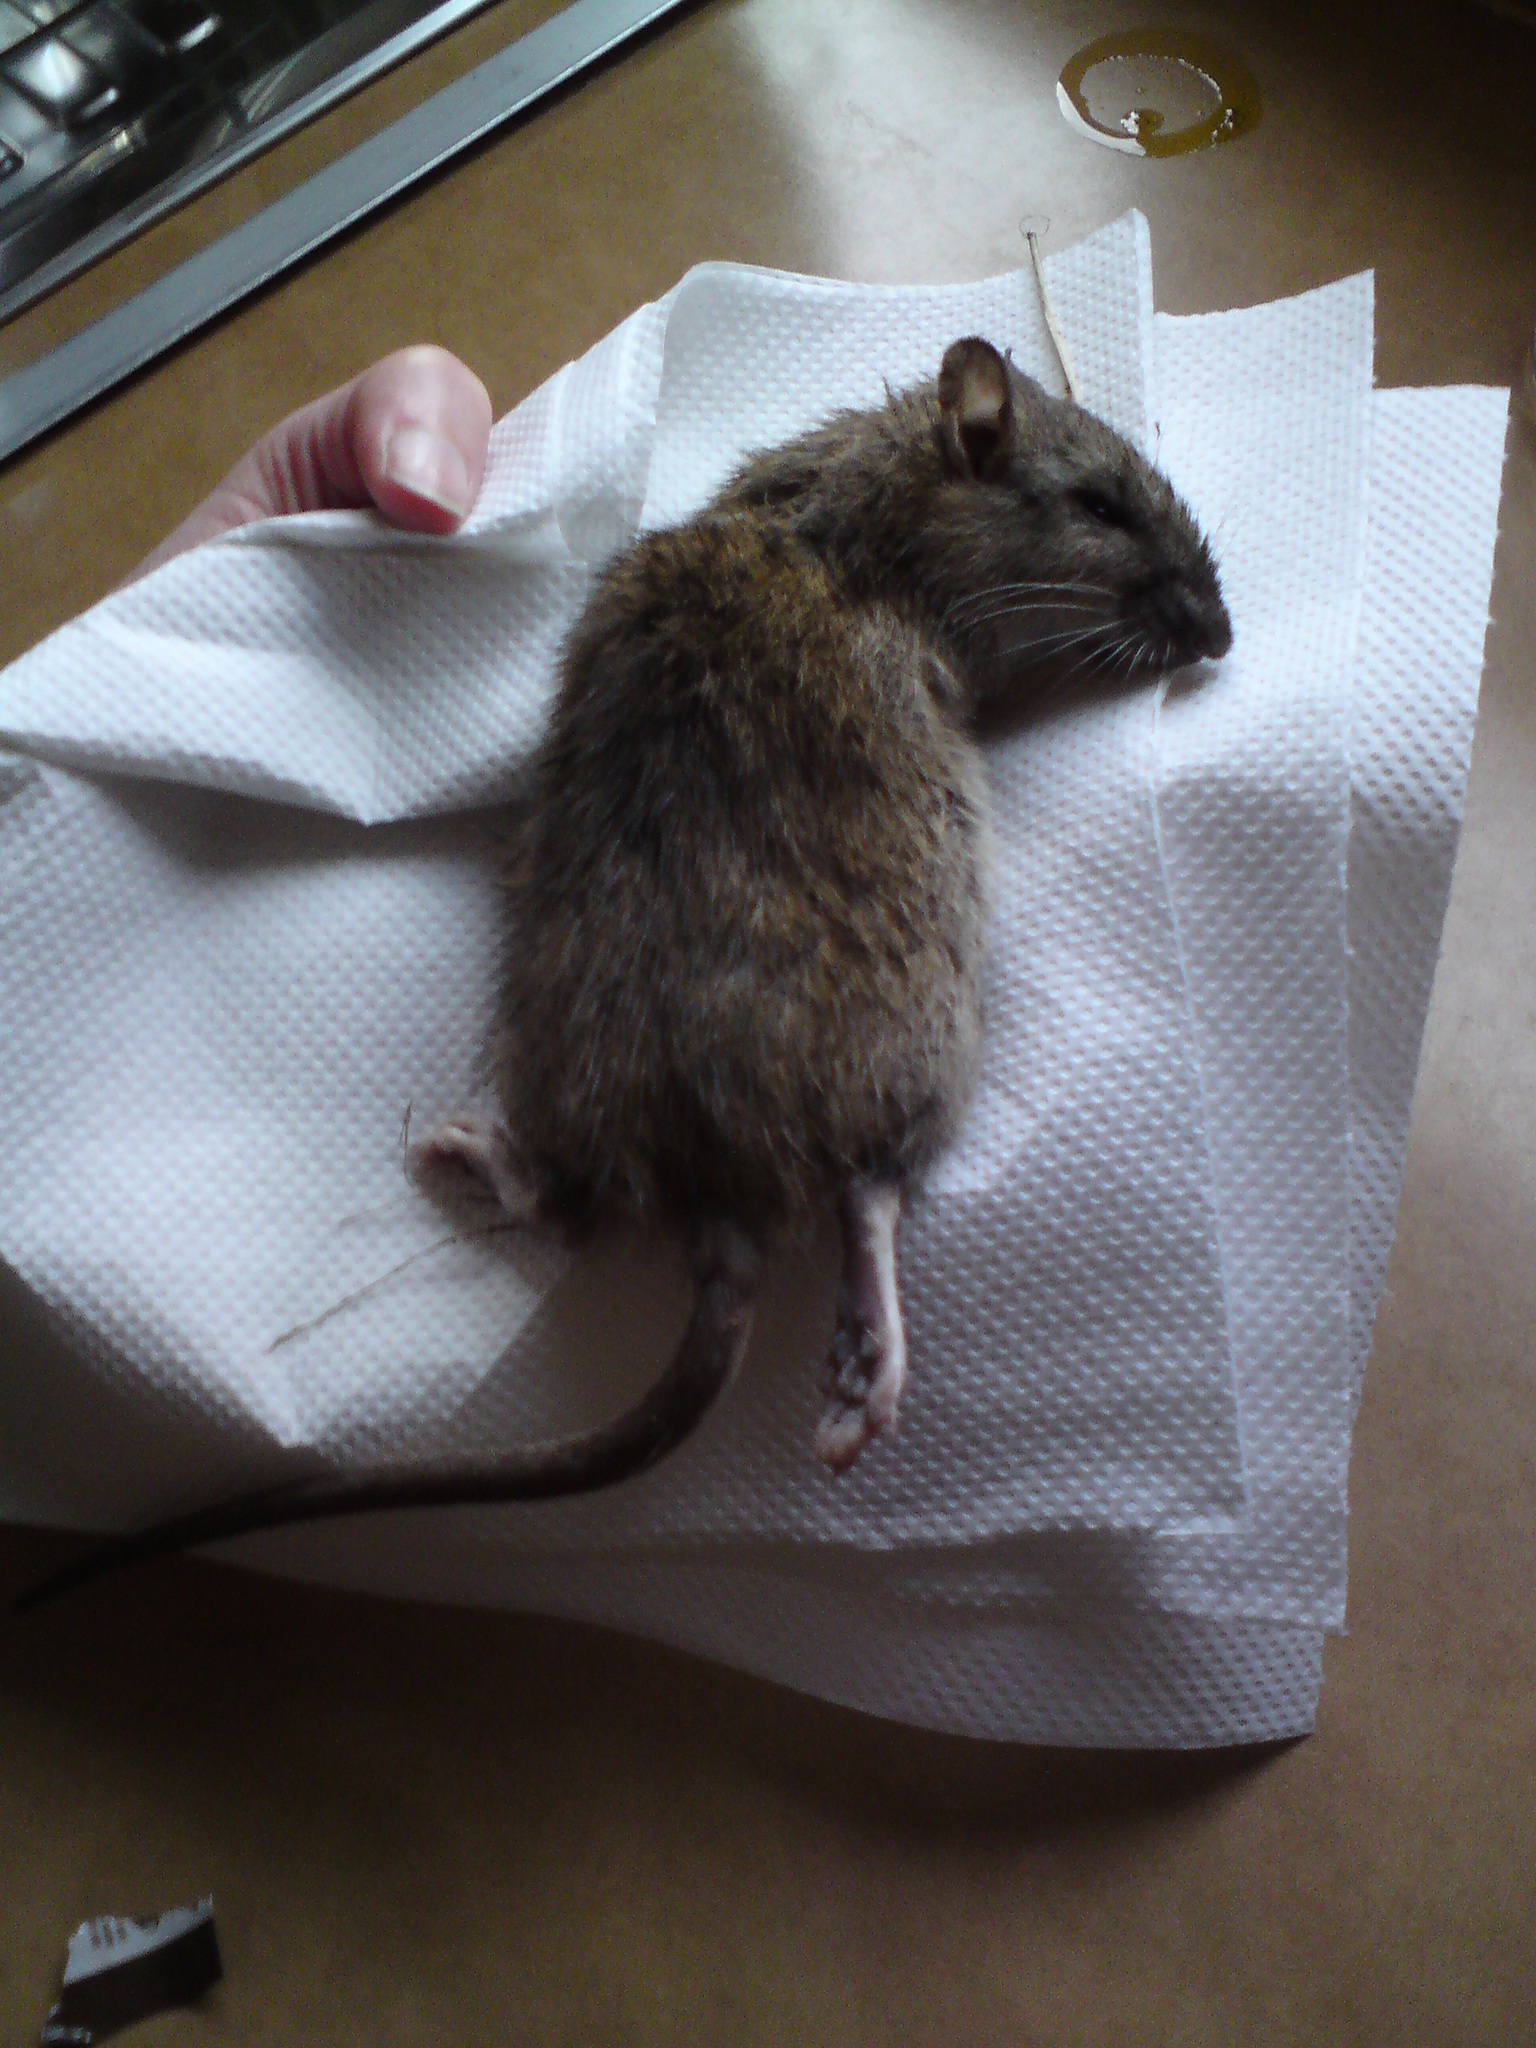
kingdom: Animalia
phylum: Chordata
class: Mammalia
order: Rodentia
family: Muridae
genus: Rattus
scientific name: Rattus norvegicus
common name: Brown rat
